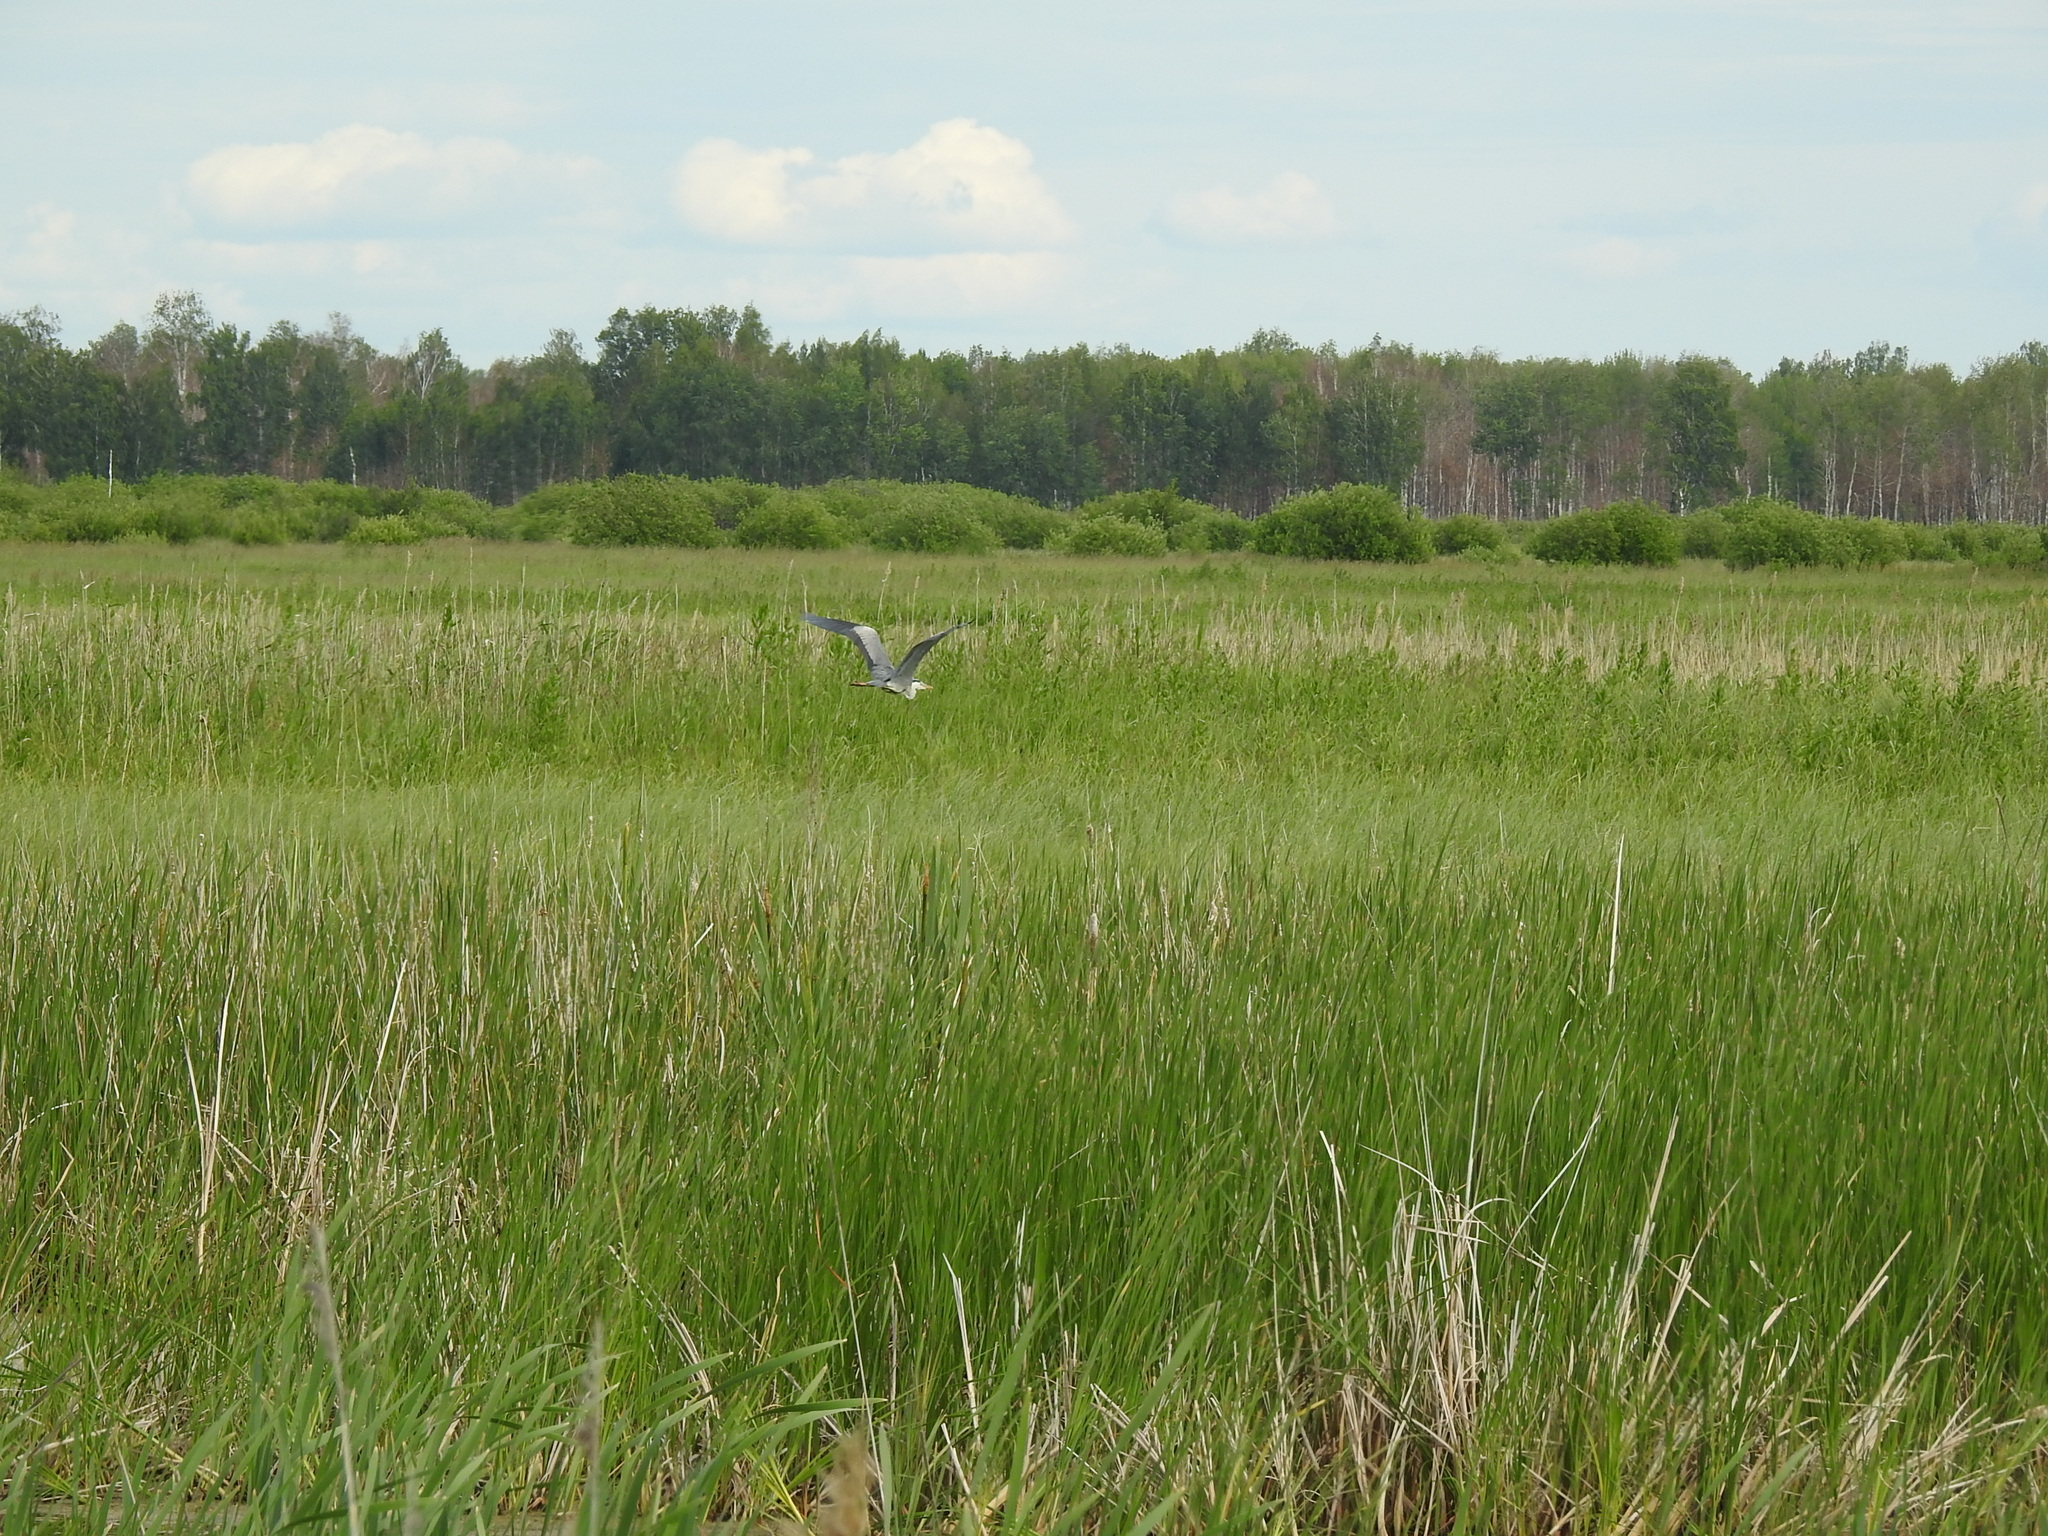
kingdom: Animalia
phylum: Chordata
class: Aves
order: Pelecaniformes
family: Ardeidae
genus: Ardea
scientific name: Ardea cinerea
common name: Grey heron
